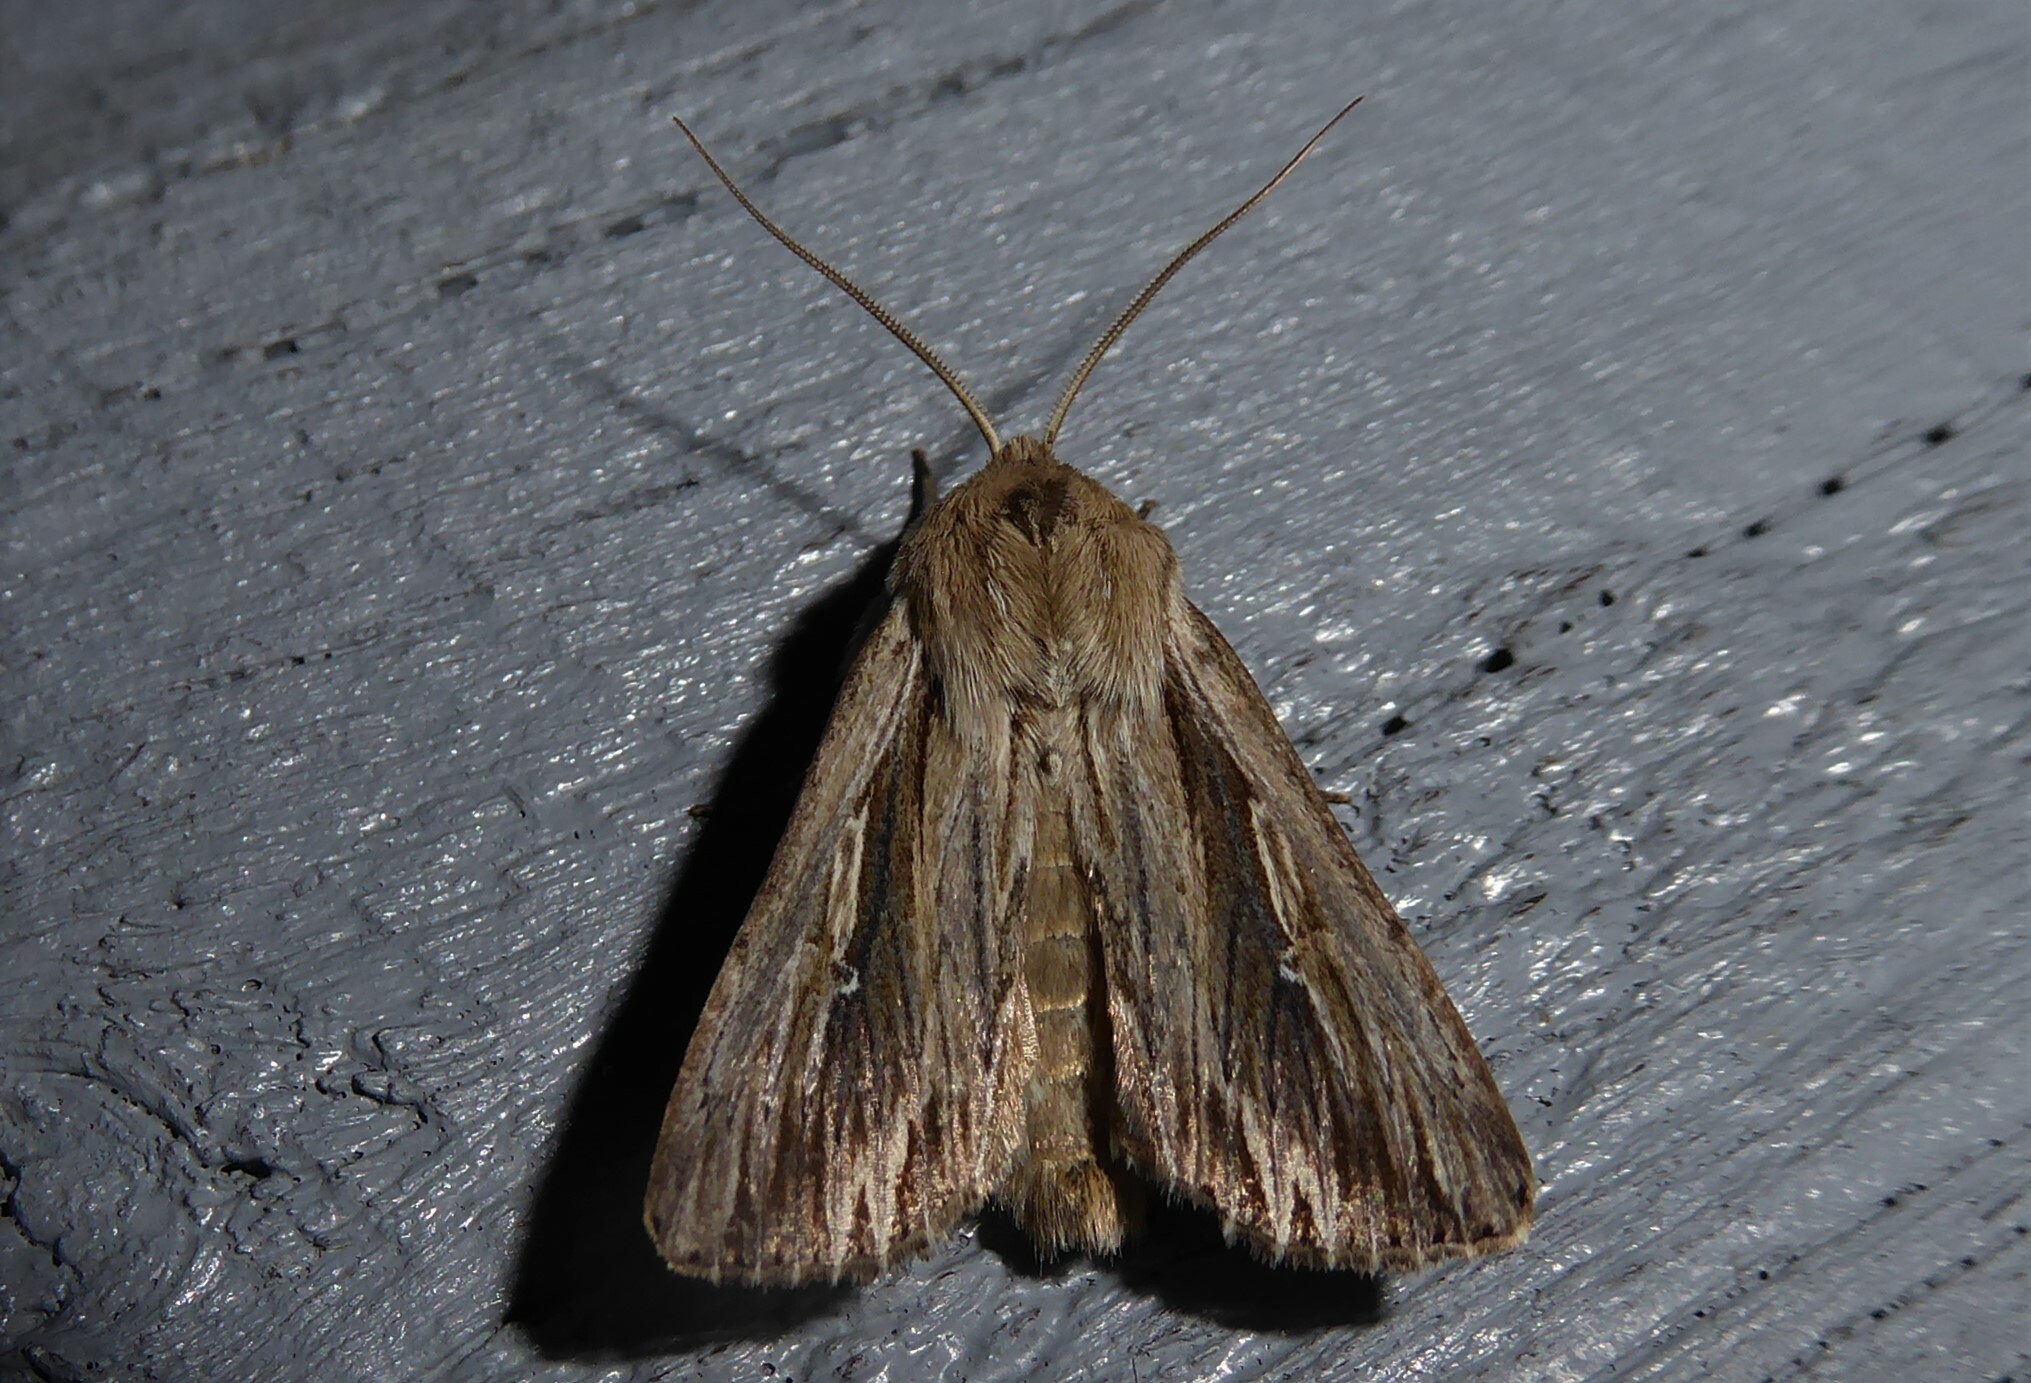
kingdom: Animalia
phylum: Arthropoda
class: Insecta
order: Lepidoptera
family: Noctuidae
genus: Persectania
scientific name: Persectania aversa
